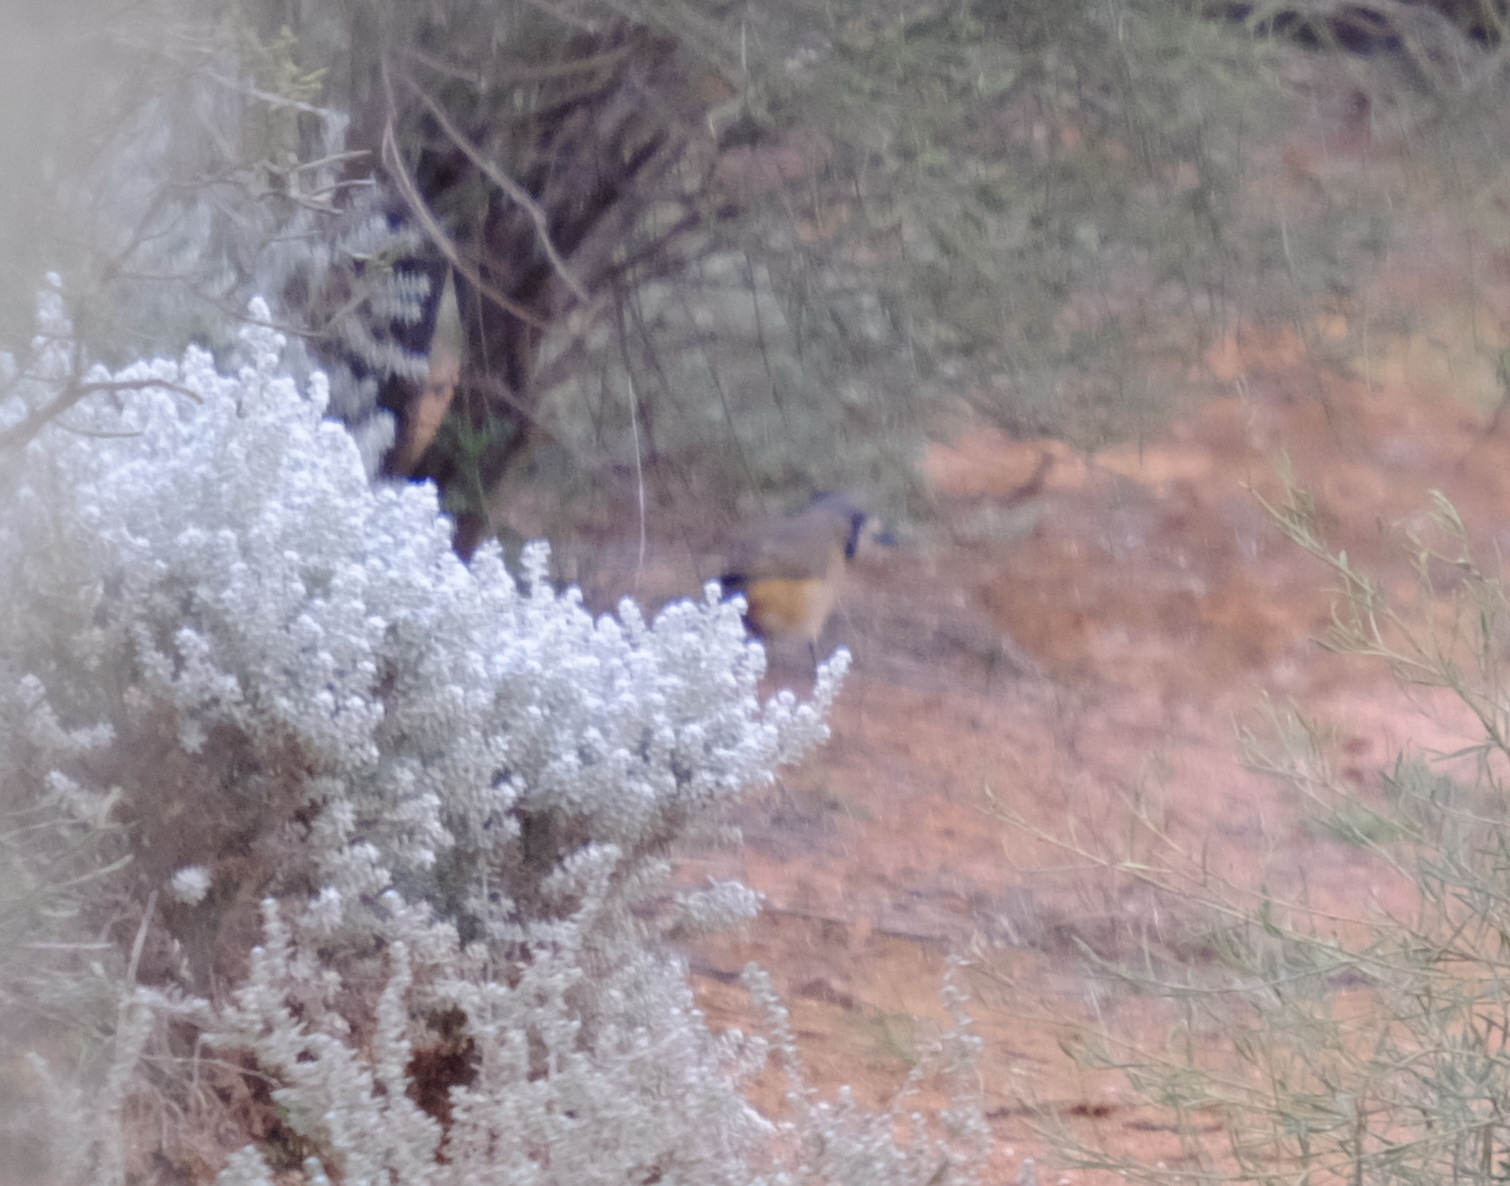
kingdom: Animalia
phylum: Chordata
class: Aves
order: Passeriformes
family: Oreoicidae
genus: Oreoica
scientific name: Oreoica gutturalis
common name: Crested bellbird
